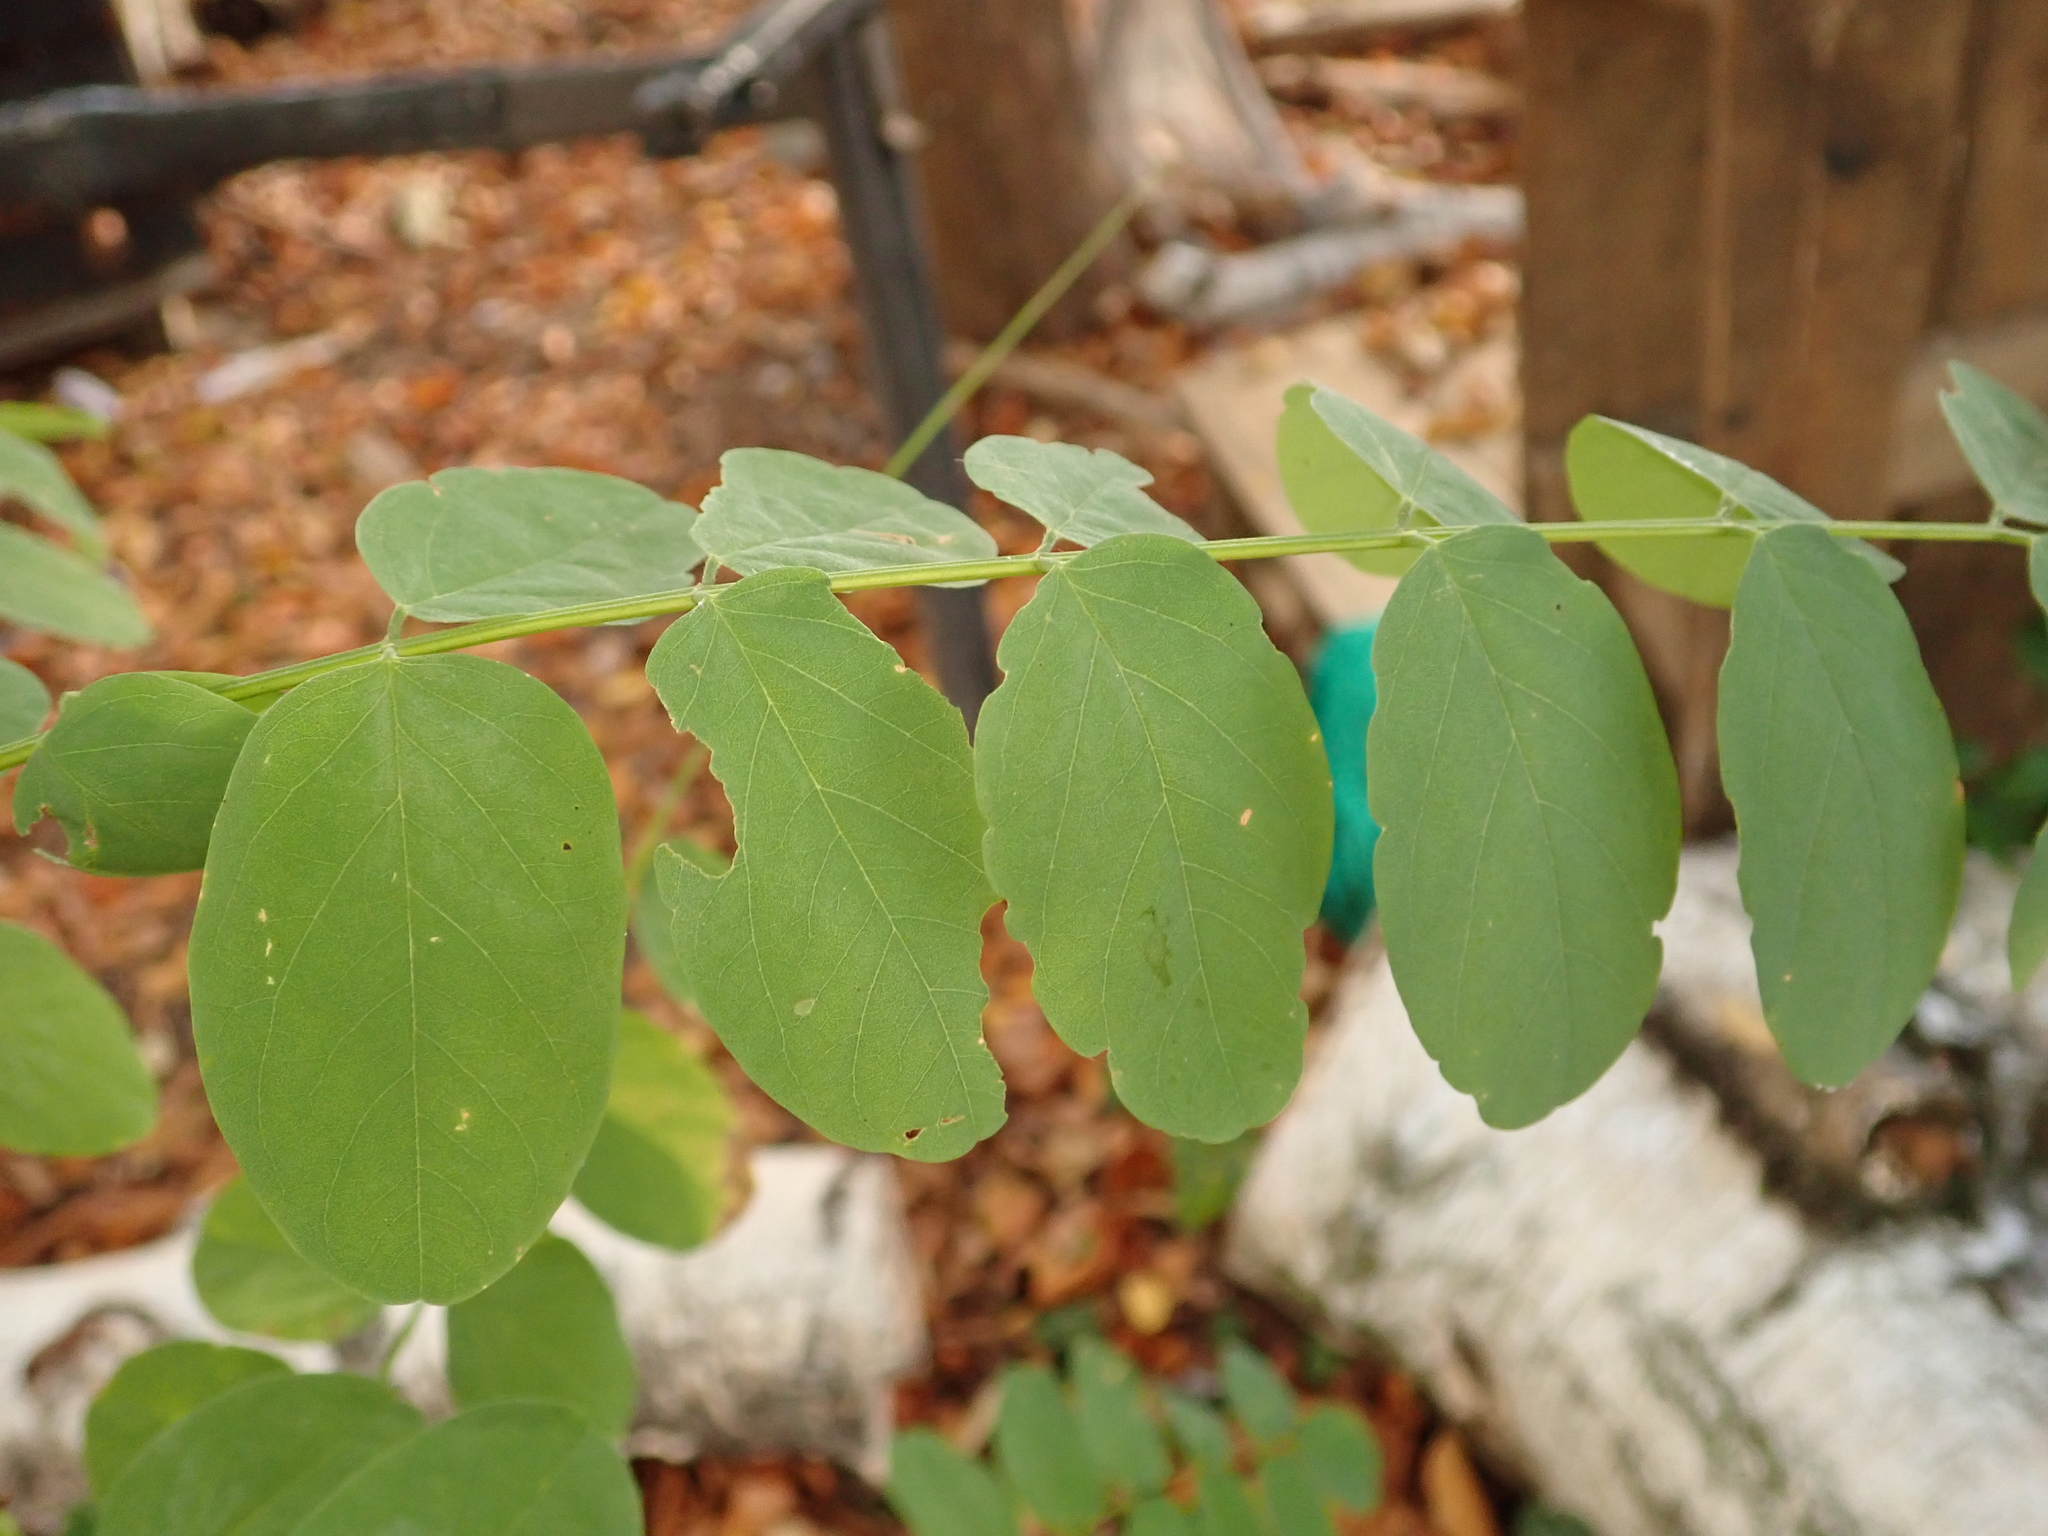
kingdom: Plantae
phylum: Tracheophyta
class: Magnoliopsida
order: Fabales
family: Fabaceae
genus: Robinia
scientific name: Robinia pseudoacacia
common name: Black locust
